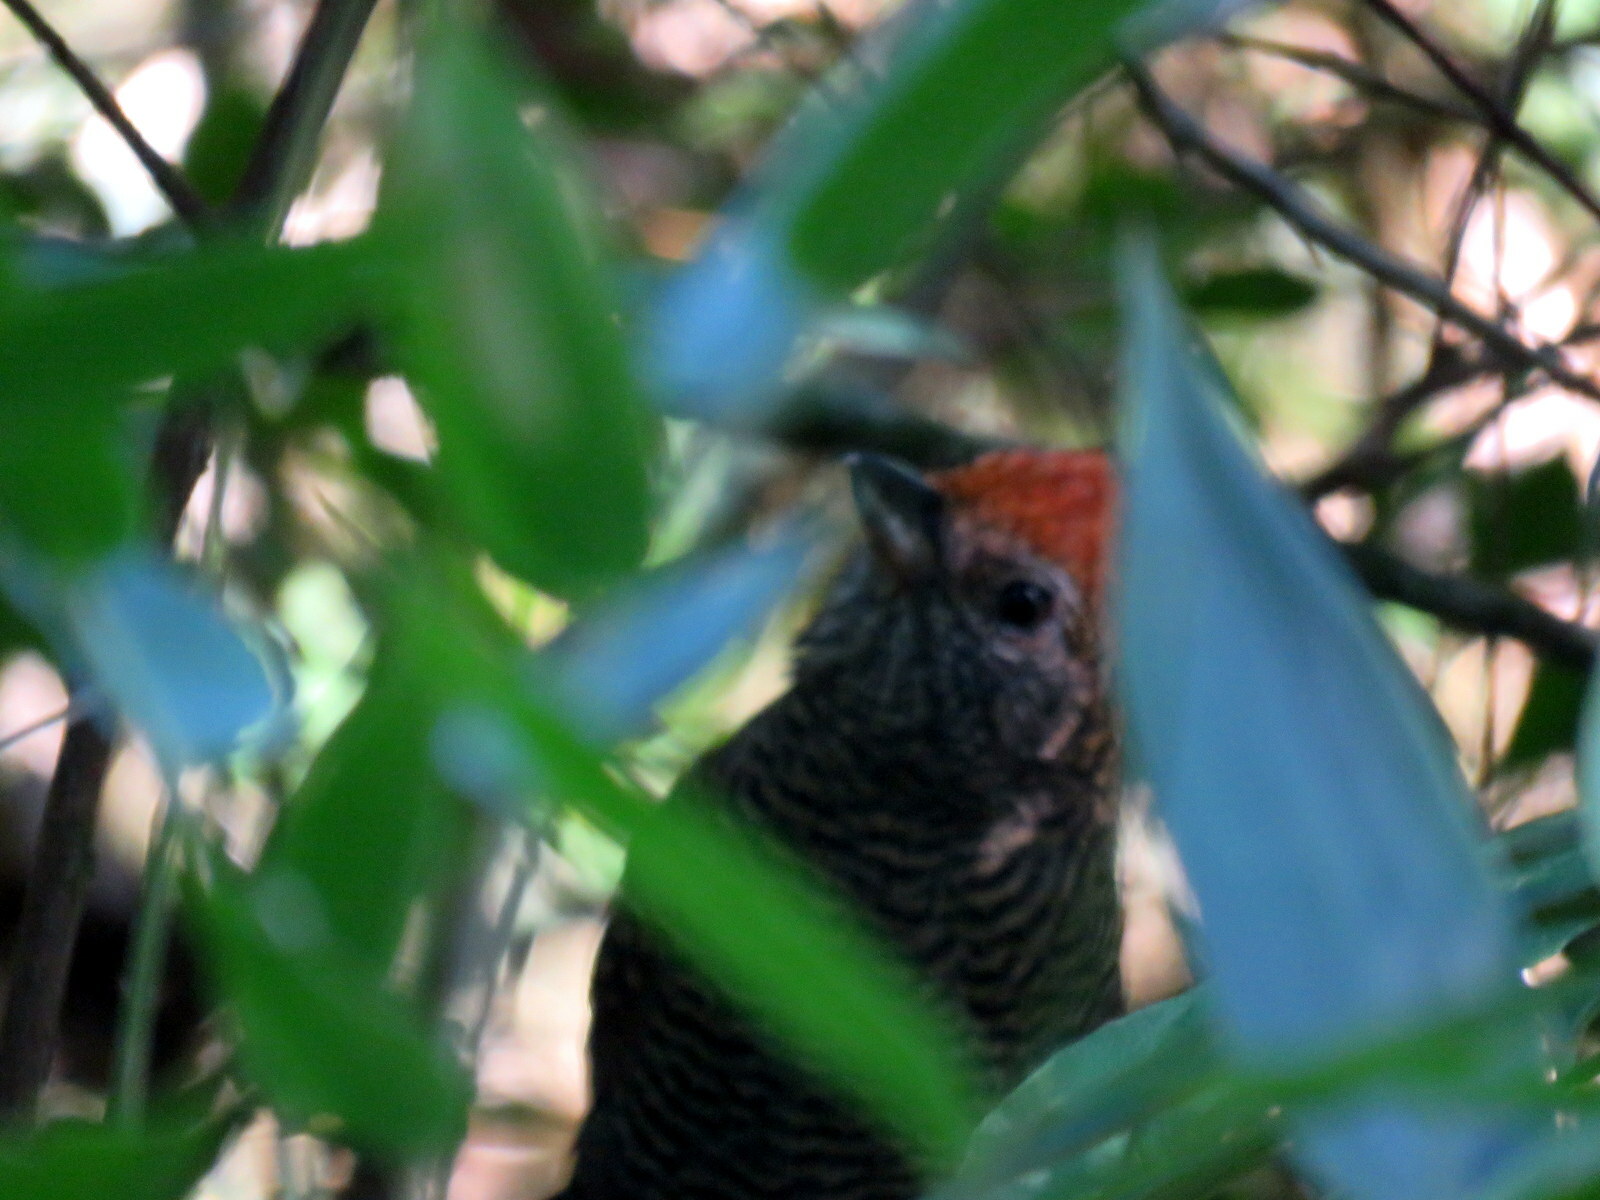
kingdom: Animalia
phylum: Chordata
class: Aves
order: Passeriformes
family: Thamnophilidae
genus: Mackenziaena
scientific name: Mackenziaena severa
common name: Tufted antshrike
